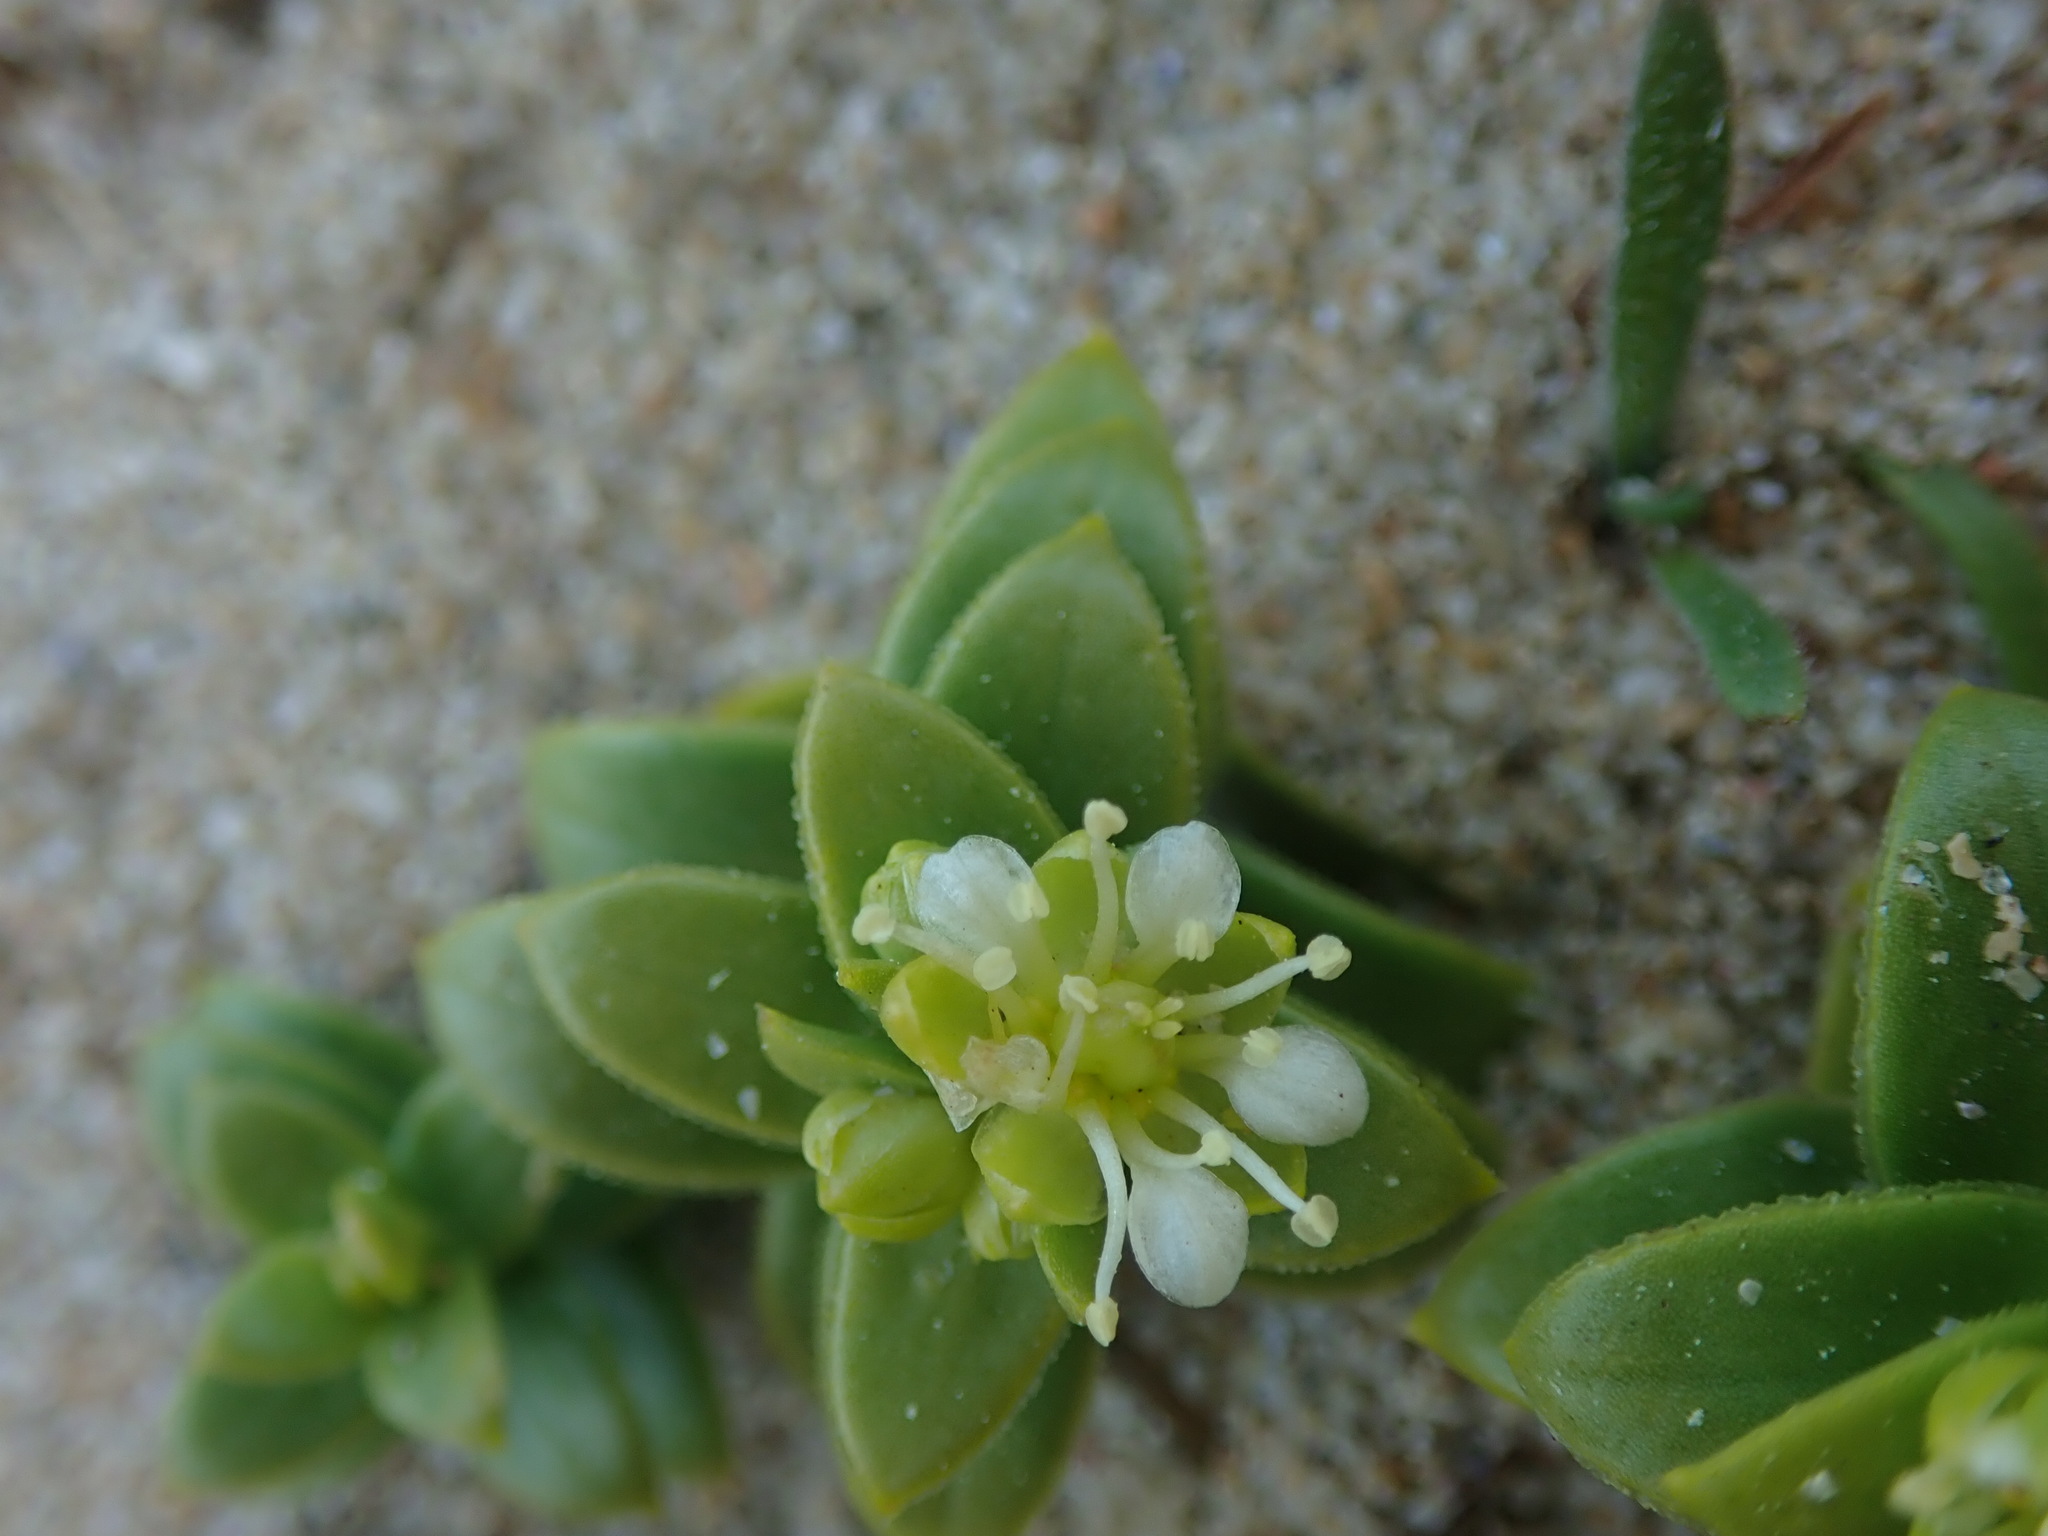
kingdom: Plantae
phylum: Tracheophyta
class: Magnoliopsida
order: Caryophyllales
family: Caryophyllaceae
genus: Honckenya
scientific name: Honckenya peploides
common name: Sea sandwort
